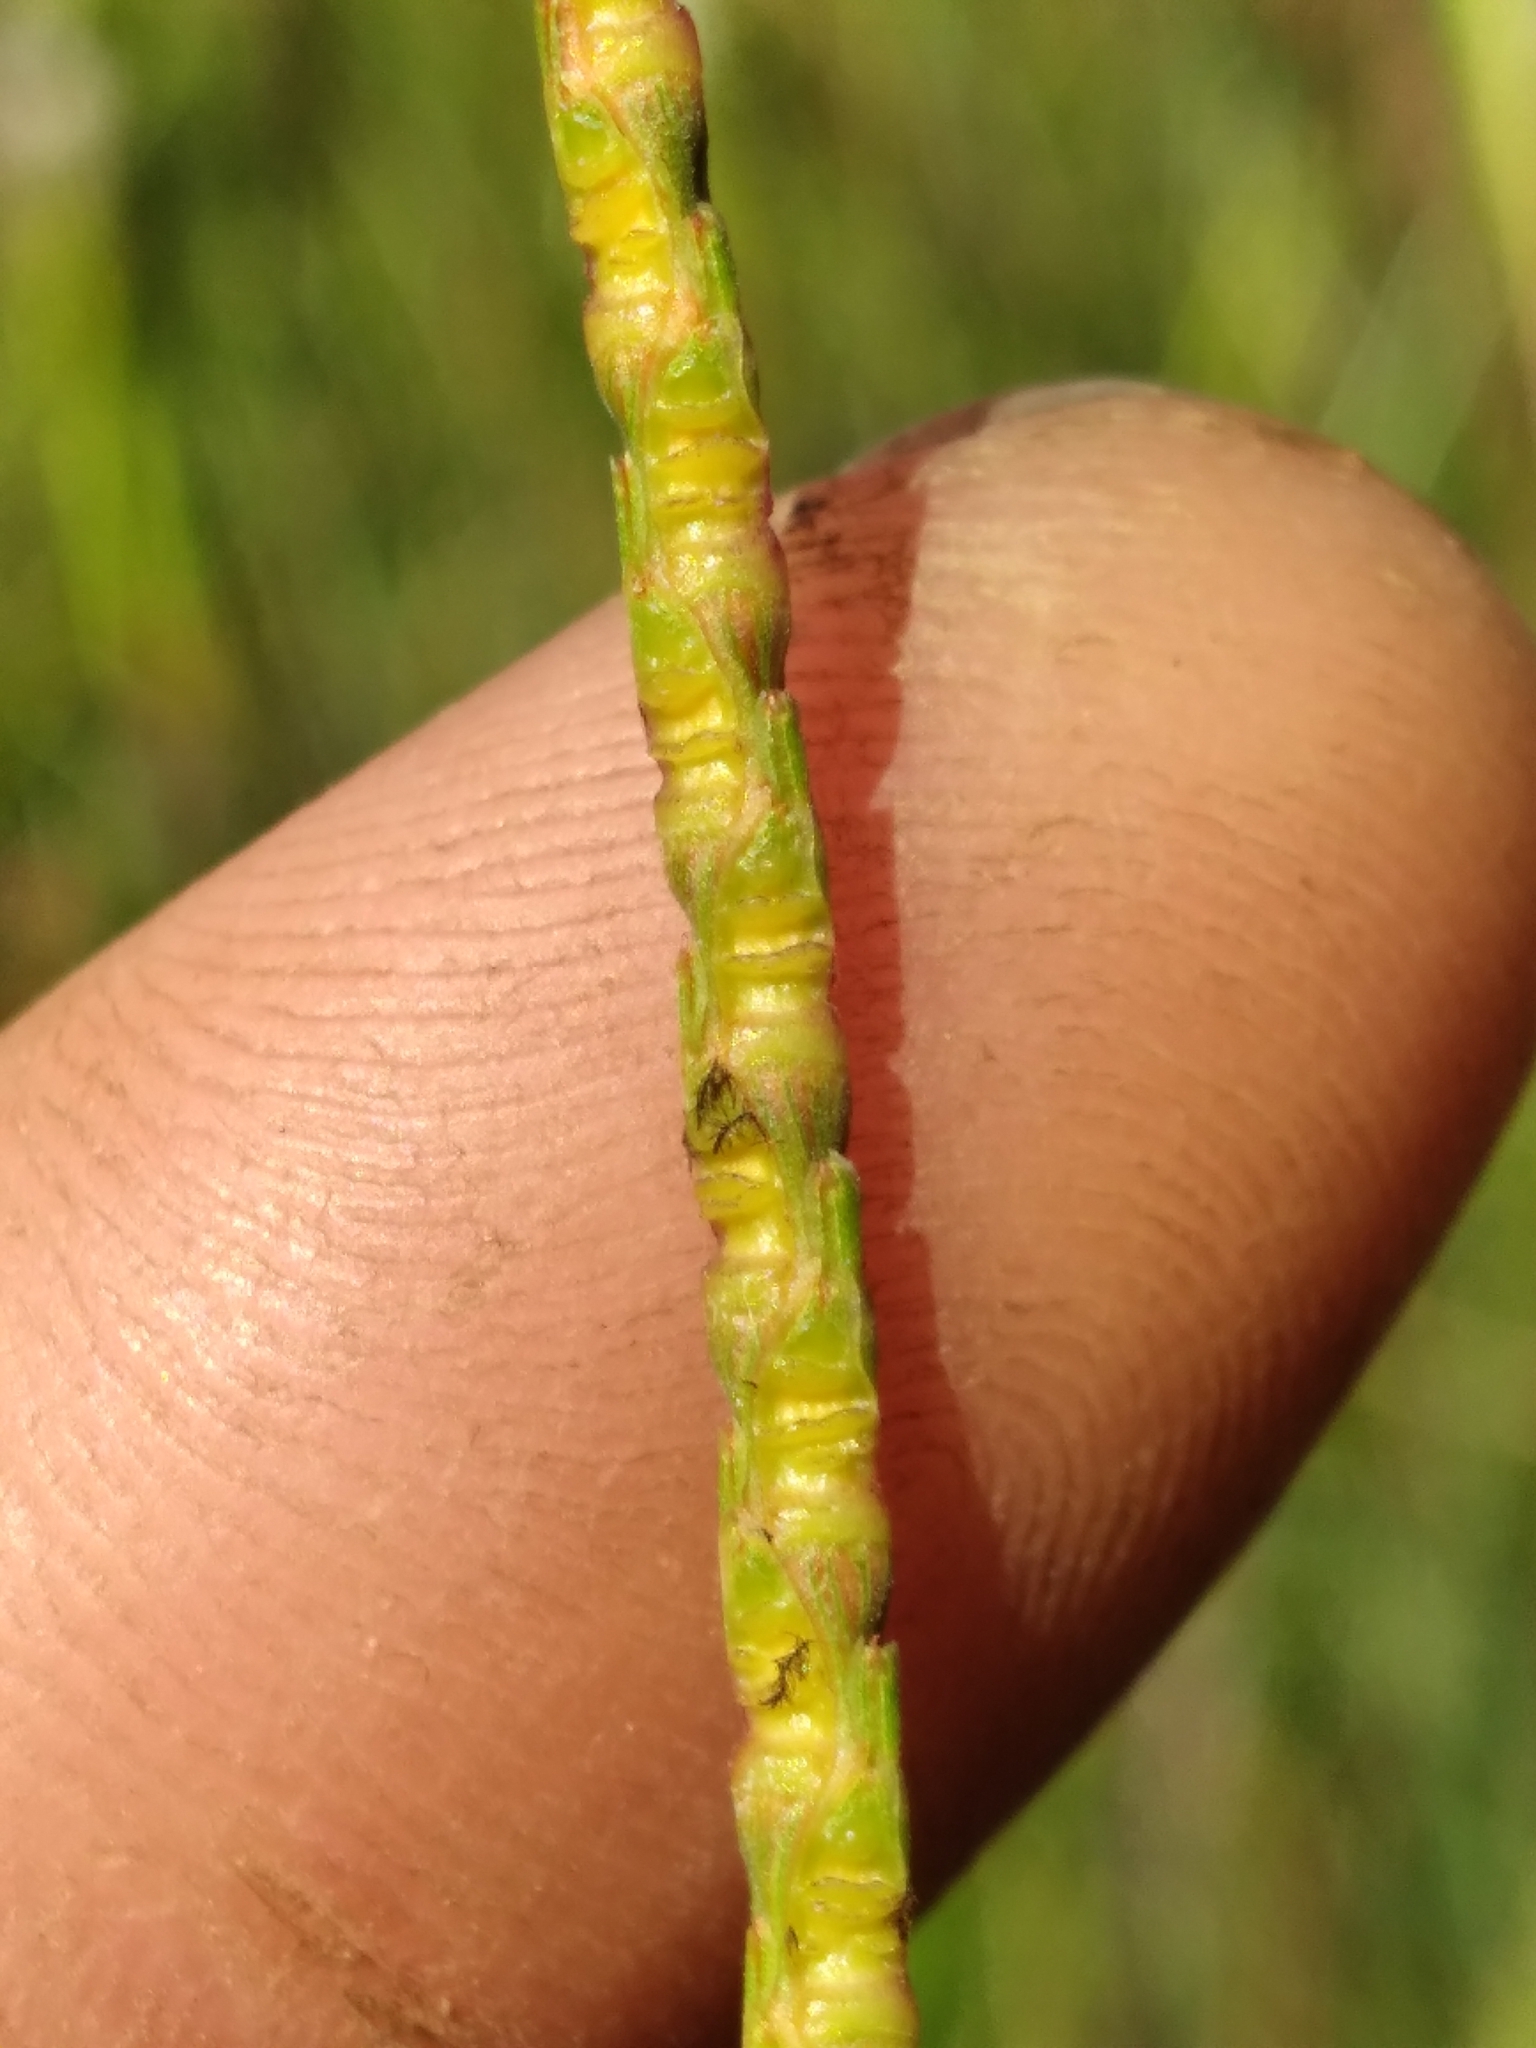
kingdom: Plantae
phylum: Tracheophyta
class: Liliopsida
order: Poales
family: Poaceae
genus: Rottboellia
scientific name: Rottboellia rugosa
